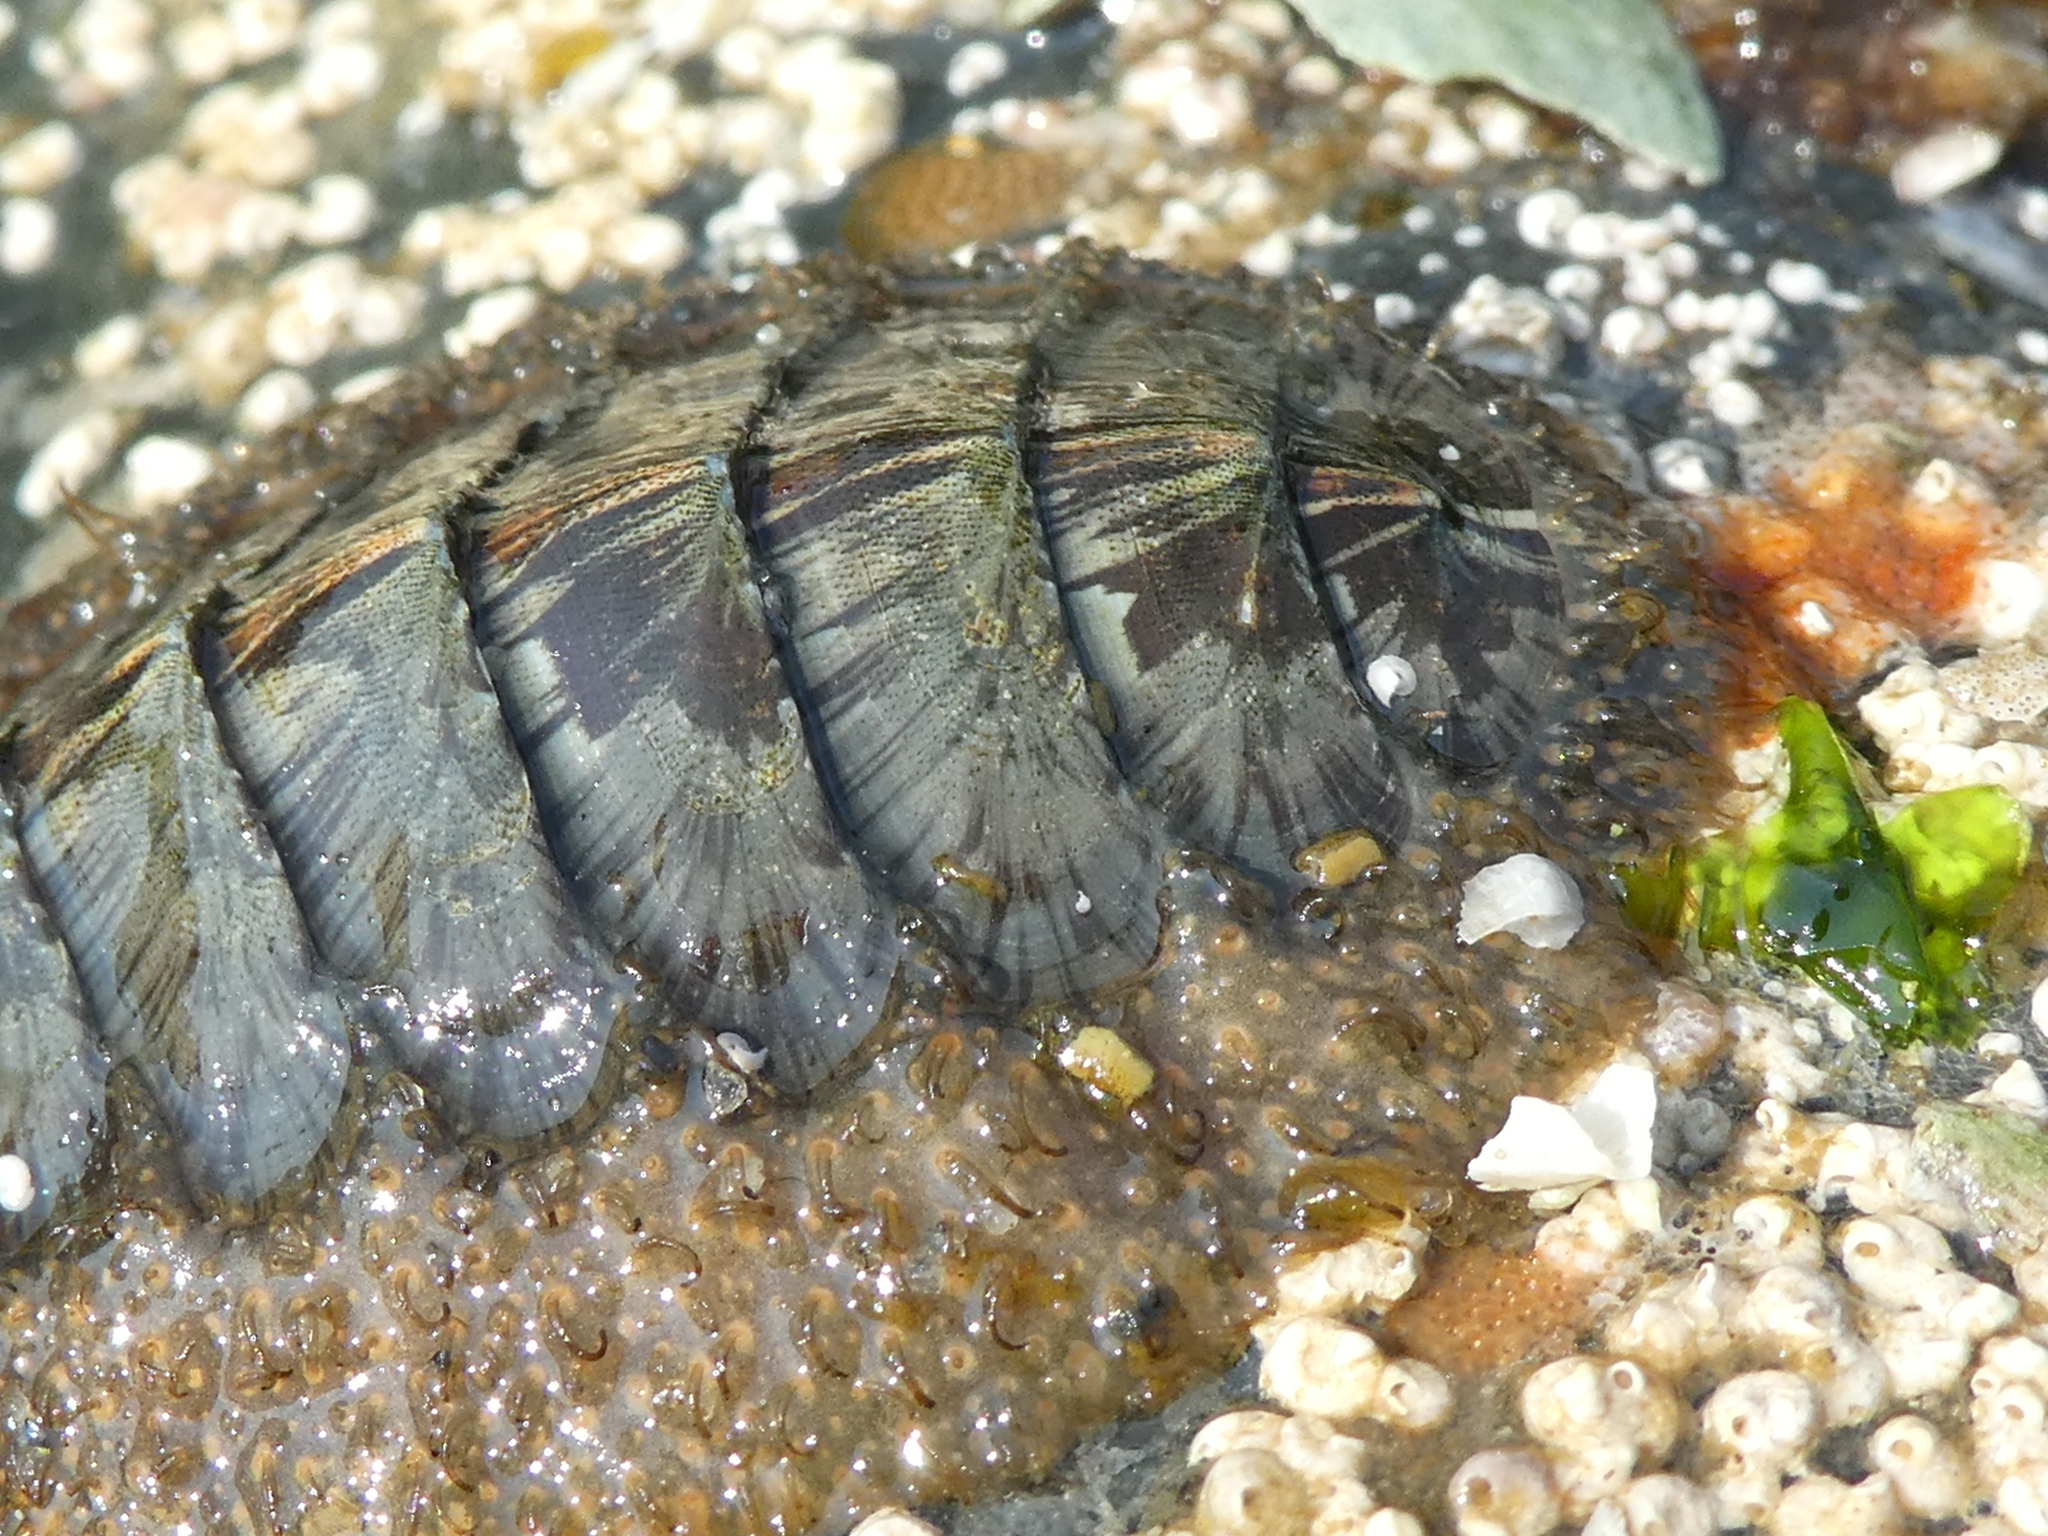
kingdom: Animalia
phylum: Mollusca
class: Polyplacophora
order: Chitonida
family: Mopaliidae
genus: Mopalia
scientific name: Mopalia lignosa
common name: Woody chiton
